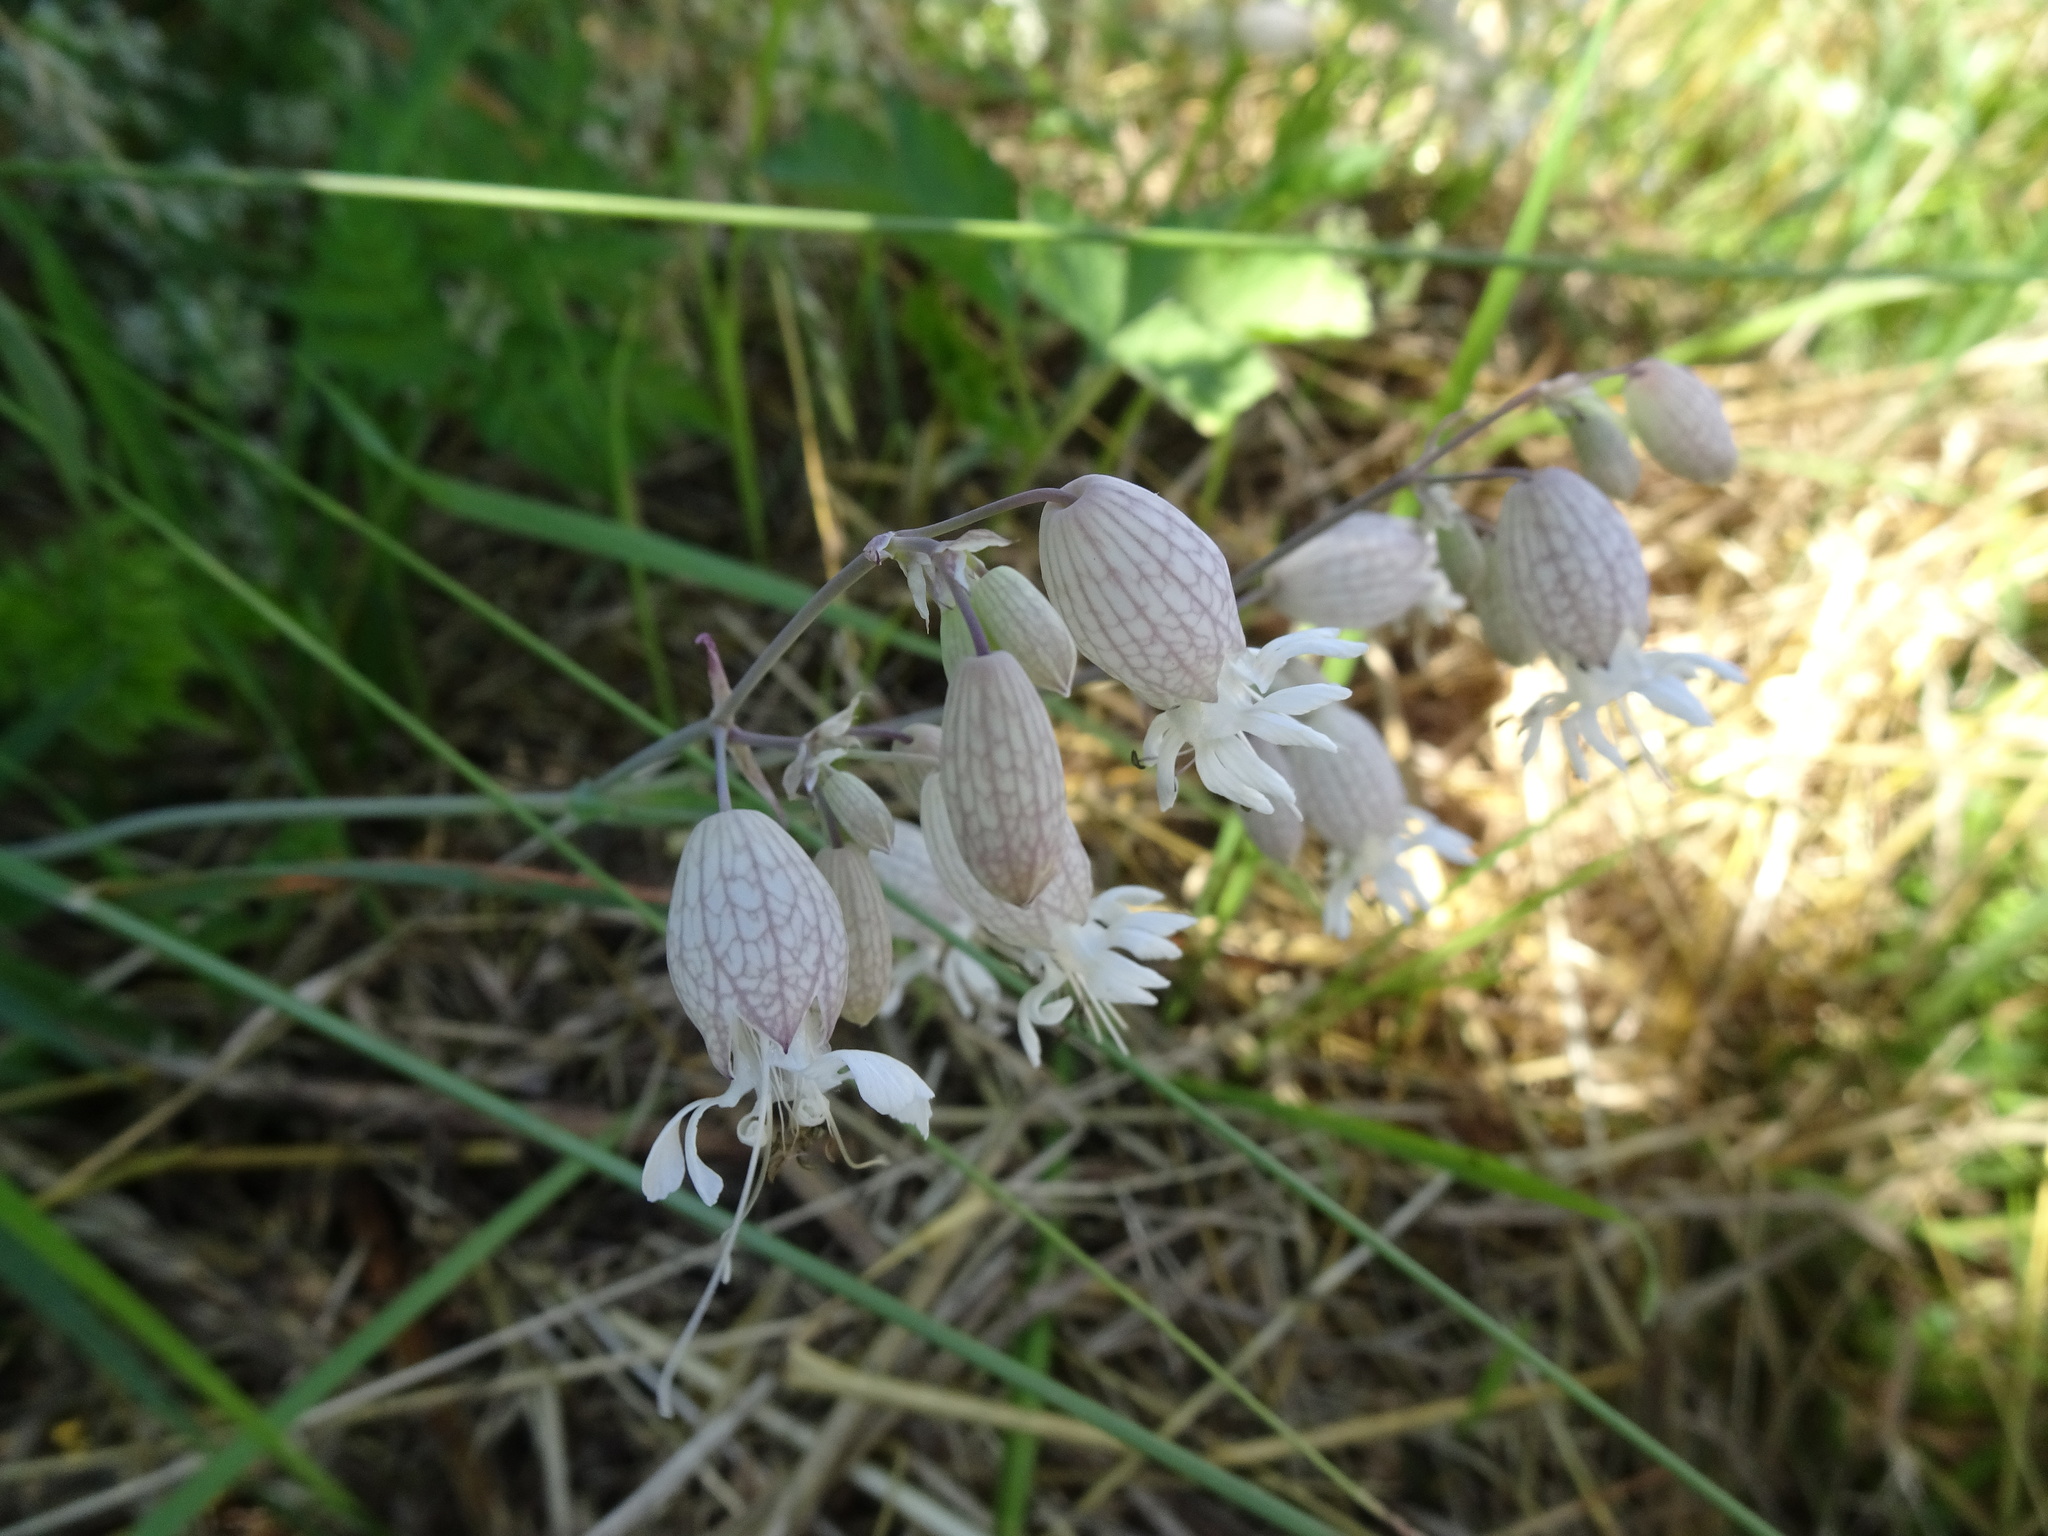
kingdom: Plantae
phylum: Tracheophyta
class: Magnoliopsida
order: Caryophyllales
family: Caryophyllaceae
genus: Silene
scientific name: Silene vulgaris
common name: Bladder campion
